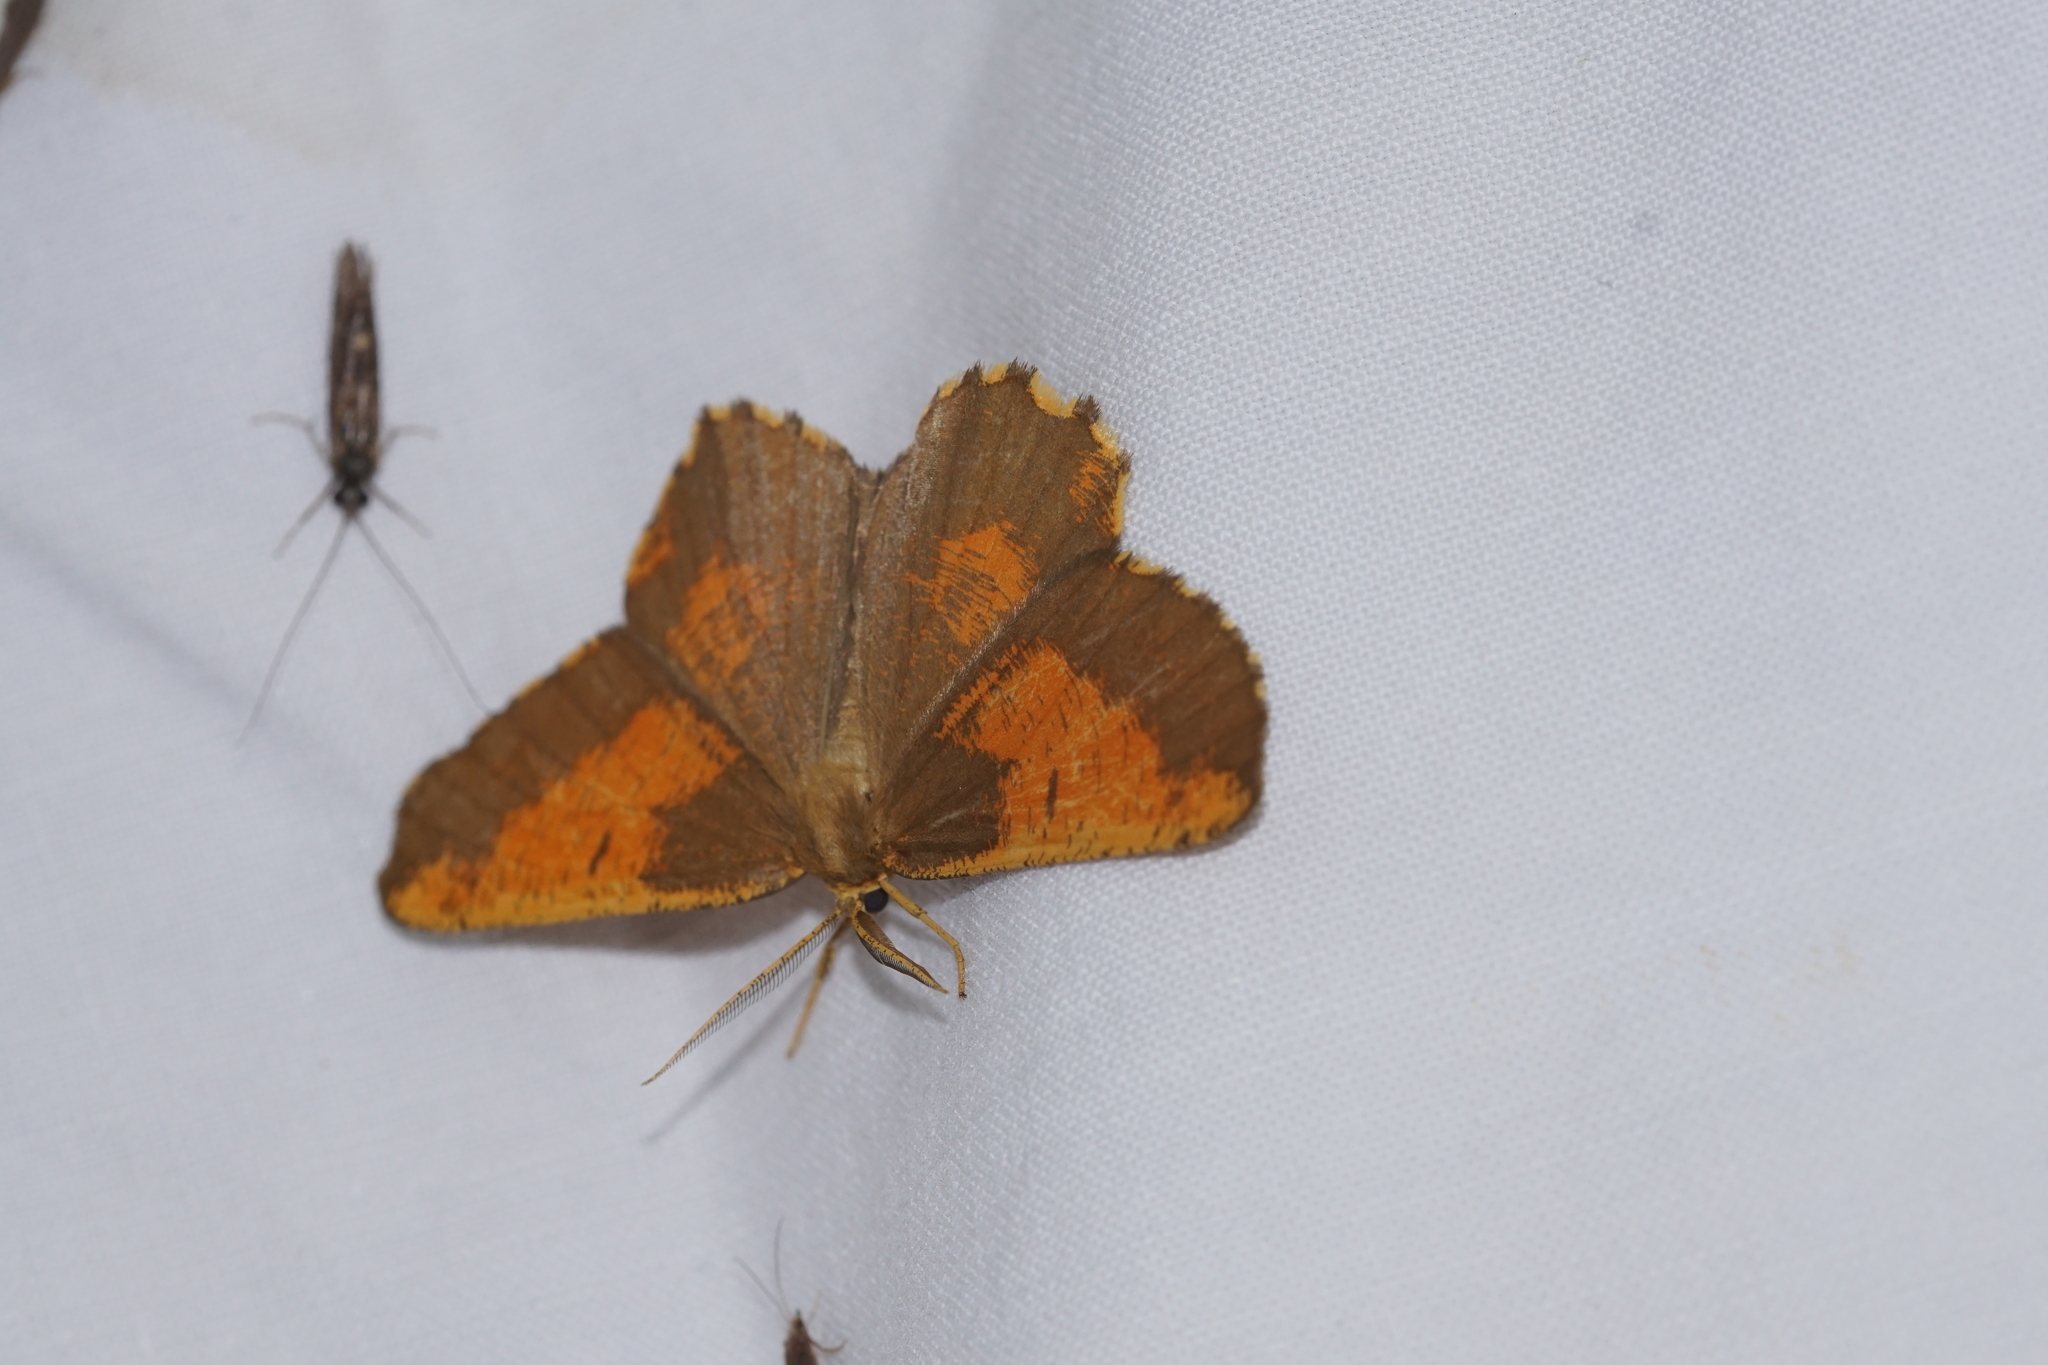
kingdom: Animalia
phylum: Arthropoda
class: Insecta
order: Lepidoptera
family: Geometridae
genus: Angerona
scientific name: Angerona prunaria
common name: Orange moth
